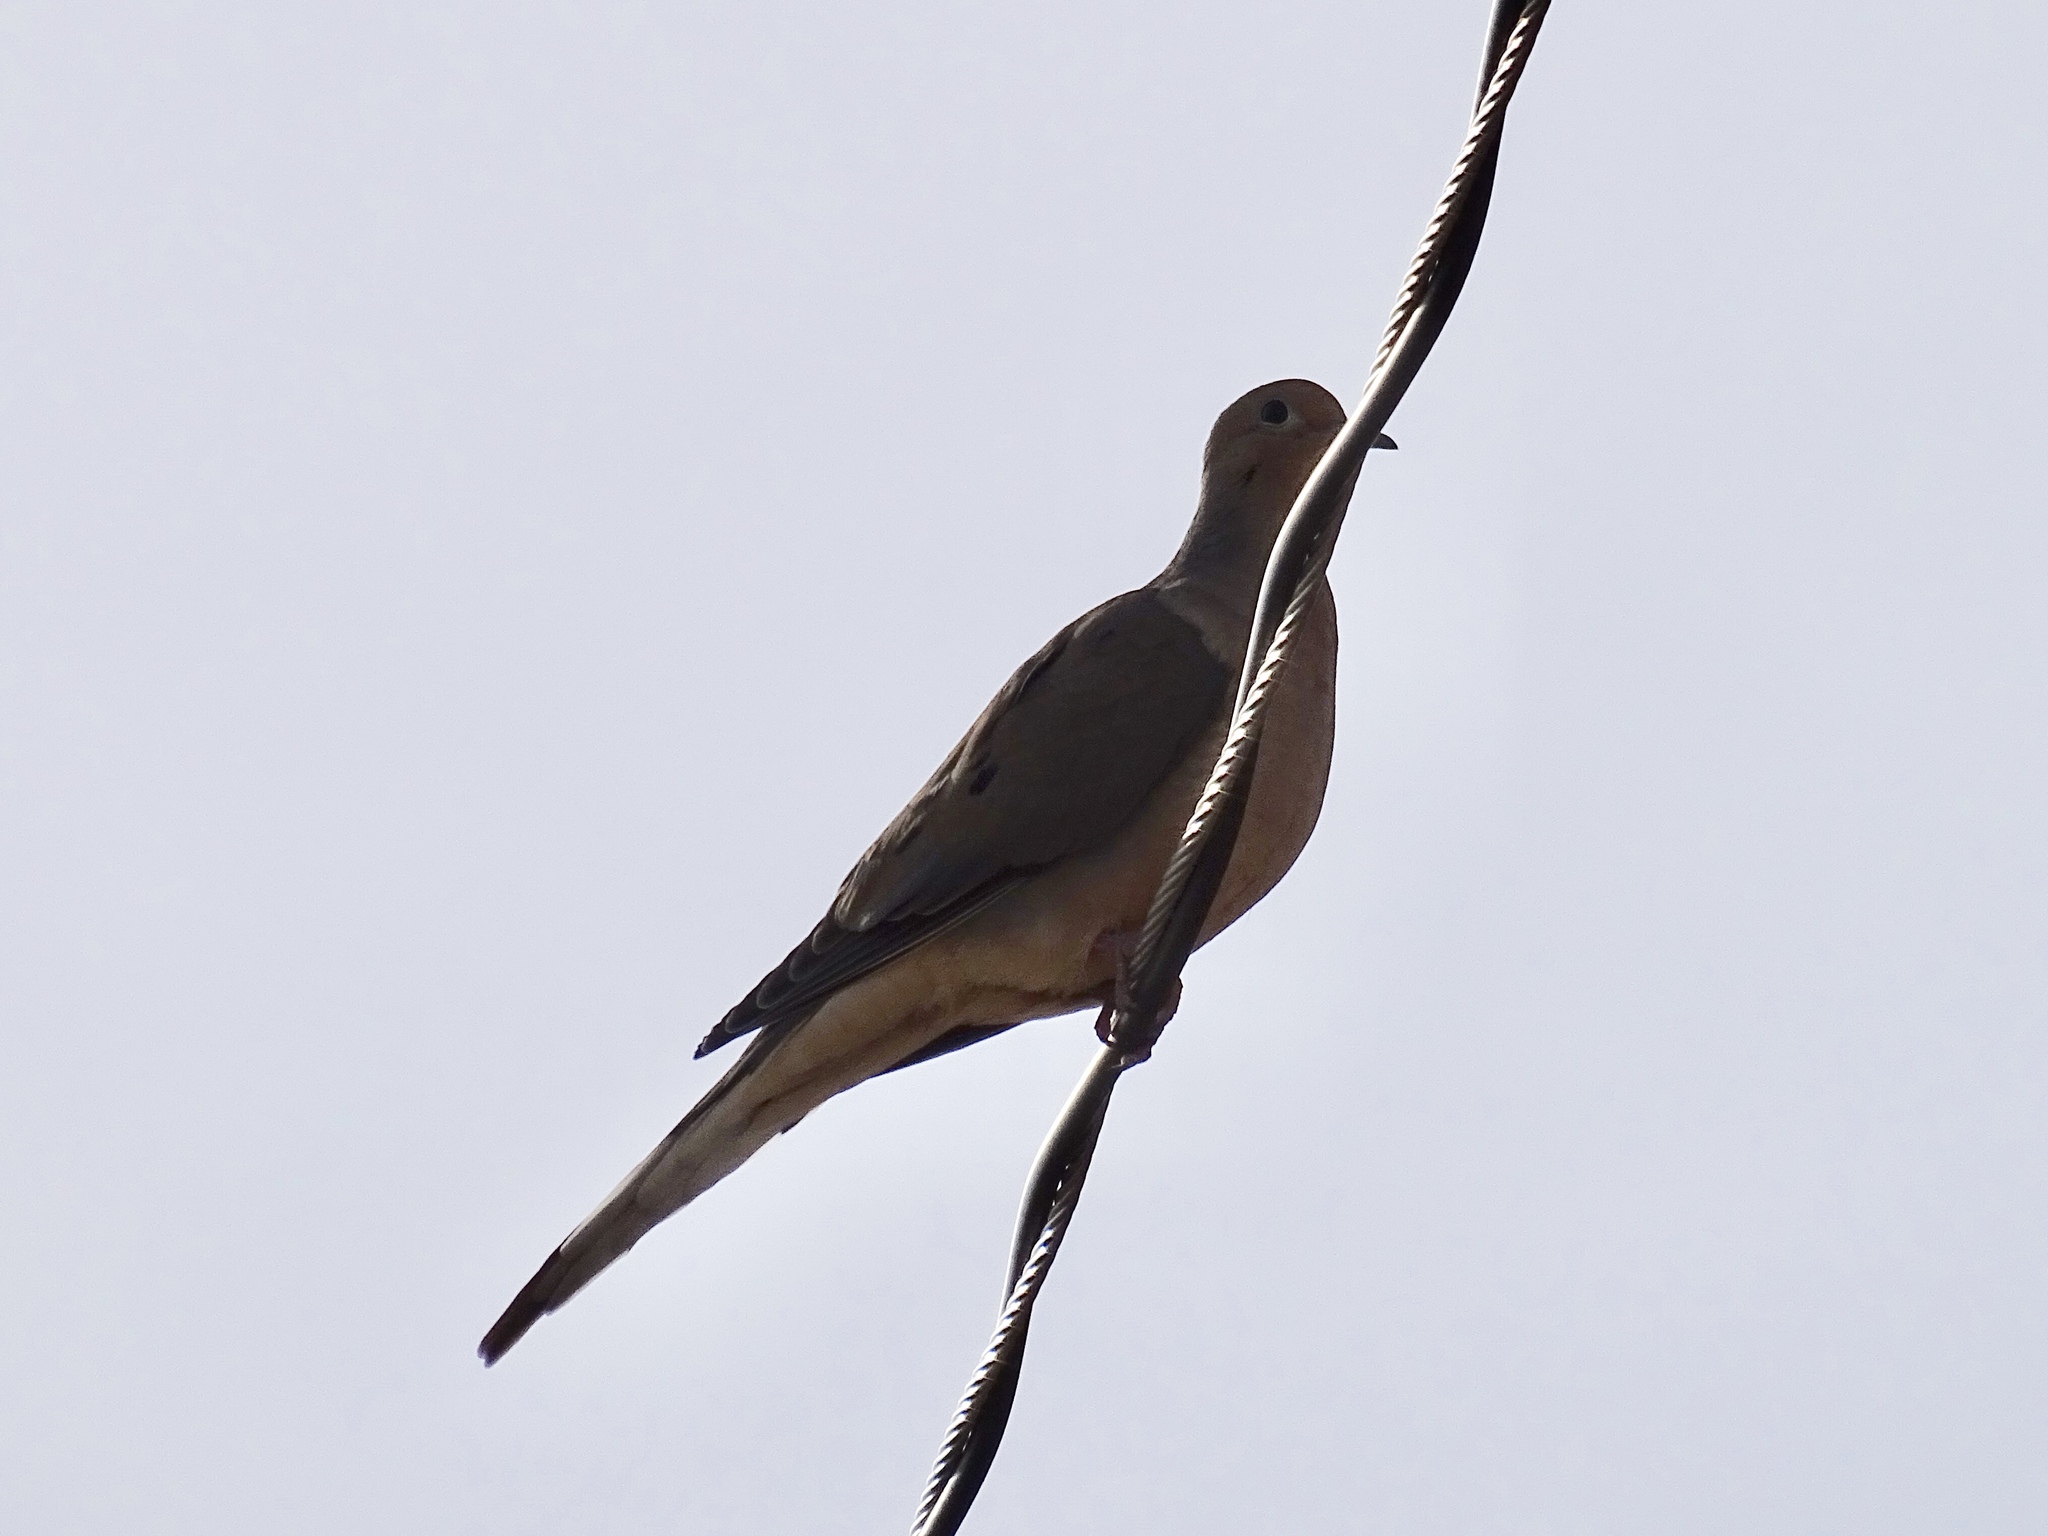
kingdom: Animalia
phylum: Chordata
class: Aves
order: Columbiformes
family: Columbidae
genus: Zenaida
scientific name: Zenaida macroura
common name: Mourning dove
